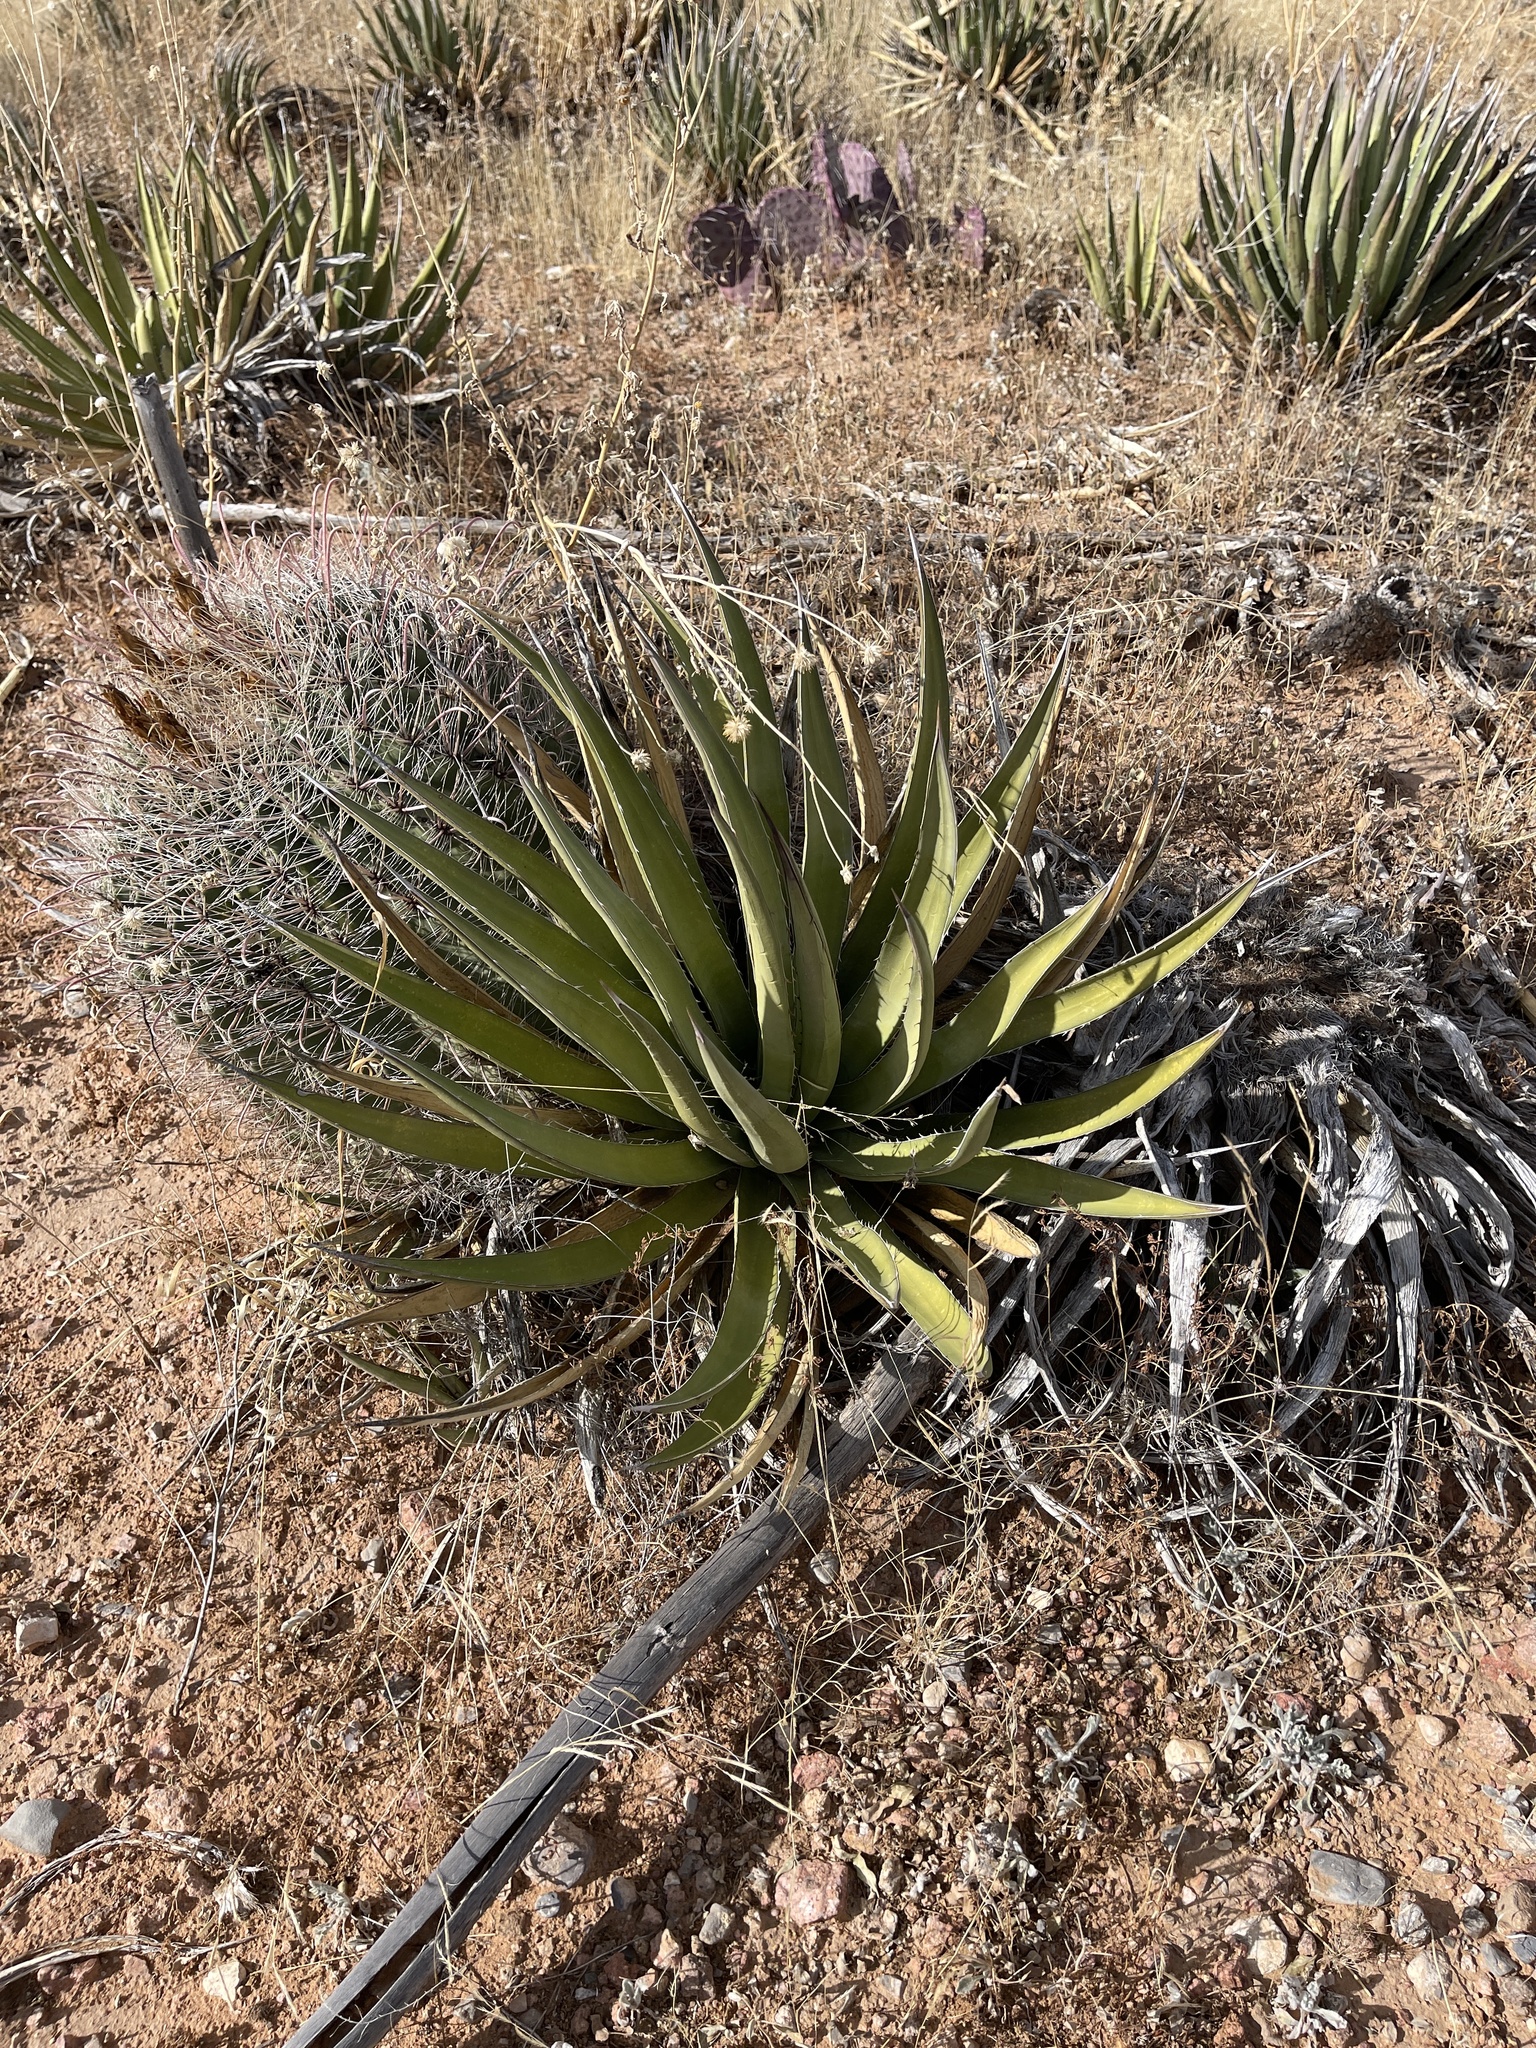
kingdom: Plantae
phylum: Tracheophyta
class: Liliopsida
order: Asparagales
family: Asparagaceae
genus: Agave
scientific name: Agave lechuguilla
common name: Lecheguilla agave
